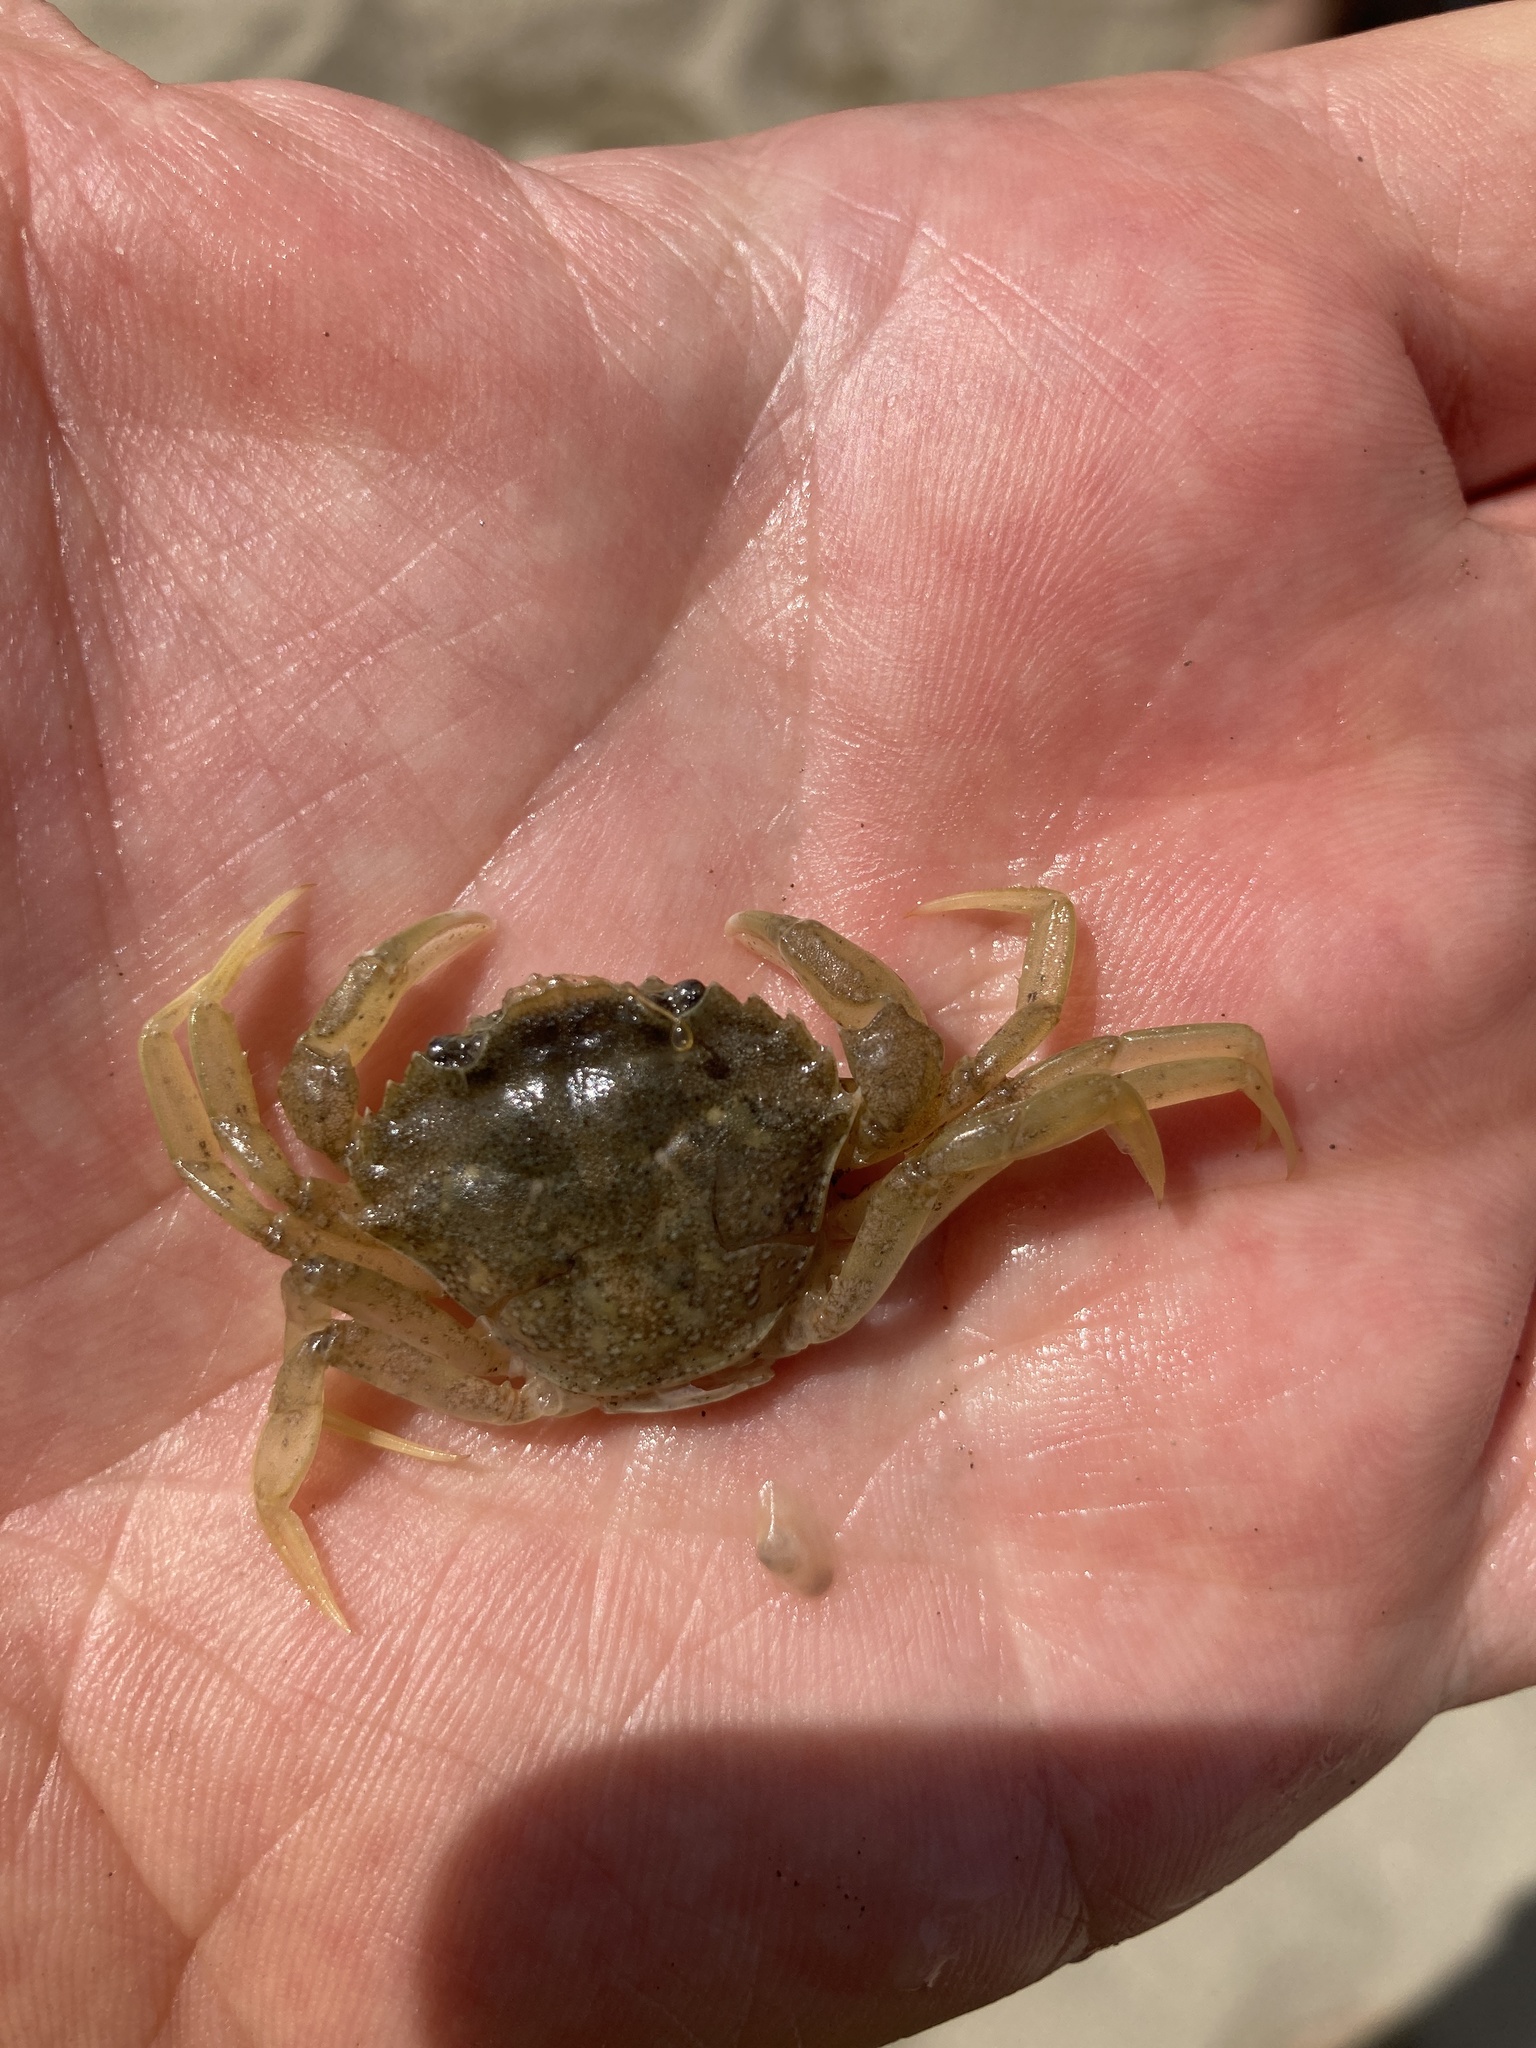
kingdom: Animalia
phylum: Arthropoda
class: Malacostraca
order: Decapoda
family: Carcinidae
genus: Carcinus
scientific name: Carcinus aestuarii
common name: Mediterranean green crab
